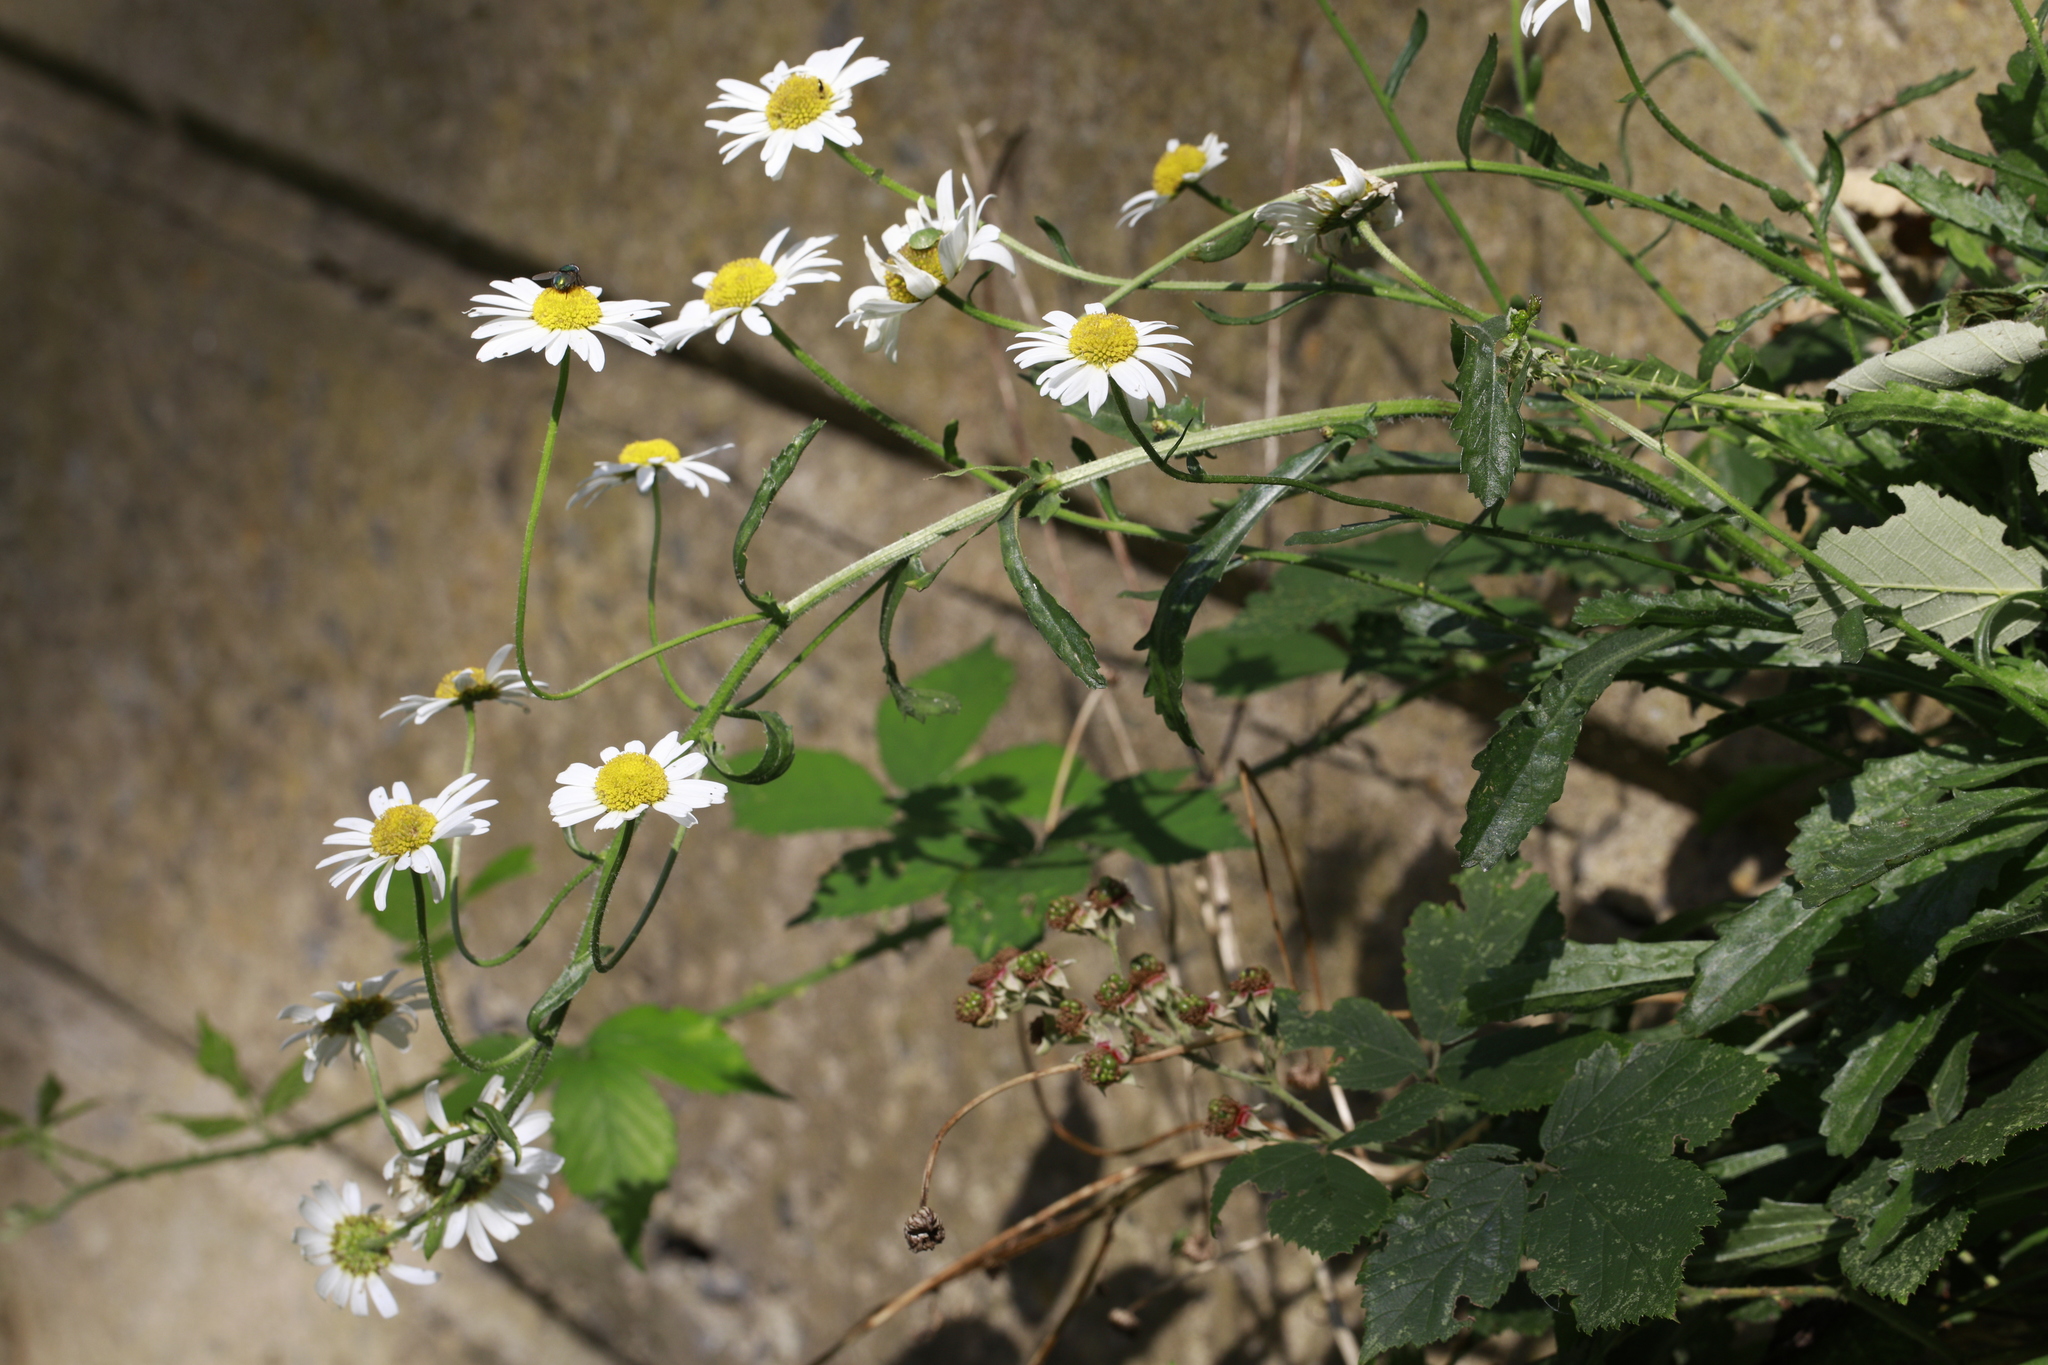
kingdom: Plantae
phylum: Tracheophyta
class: Magnoliopsida
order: Asterales
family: Asteraceae
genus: Leucanthemum
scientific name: Leucanthemum vulgare
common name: Oxeye daisy
